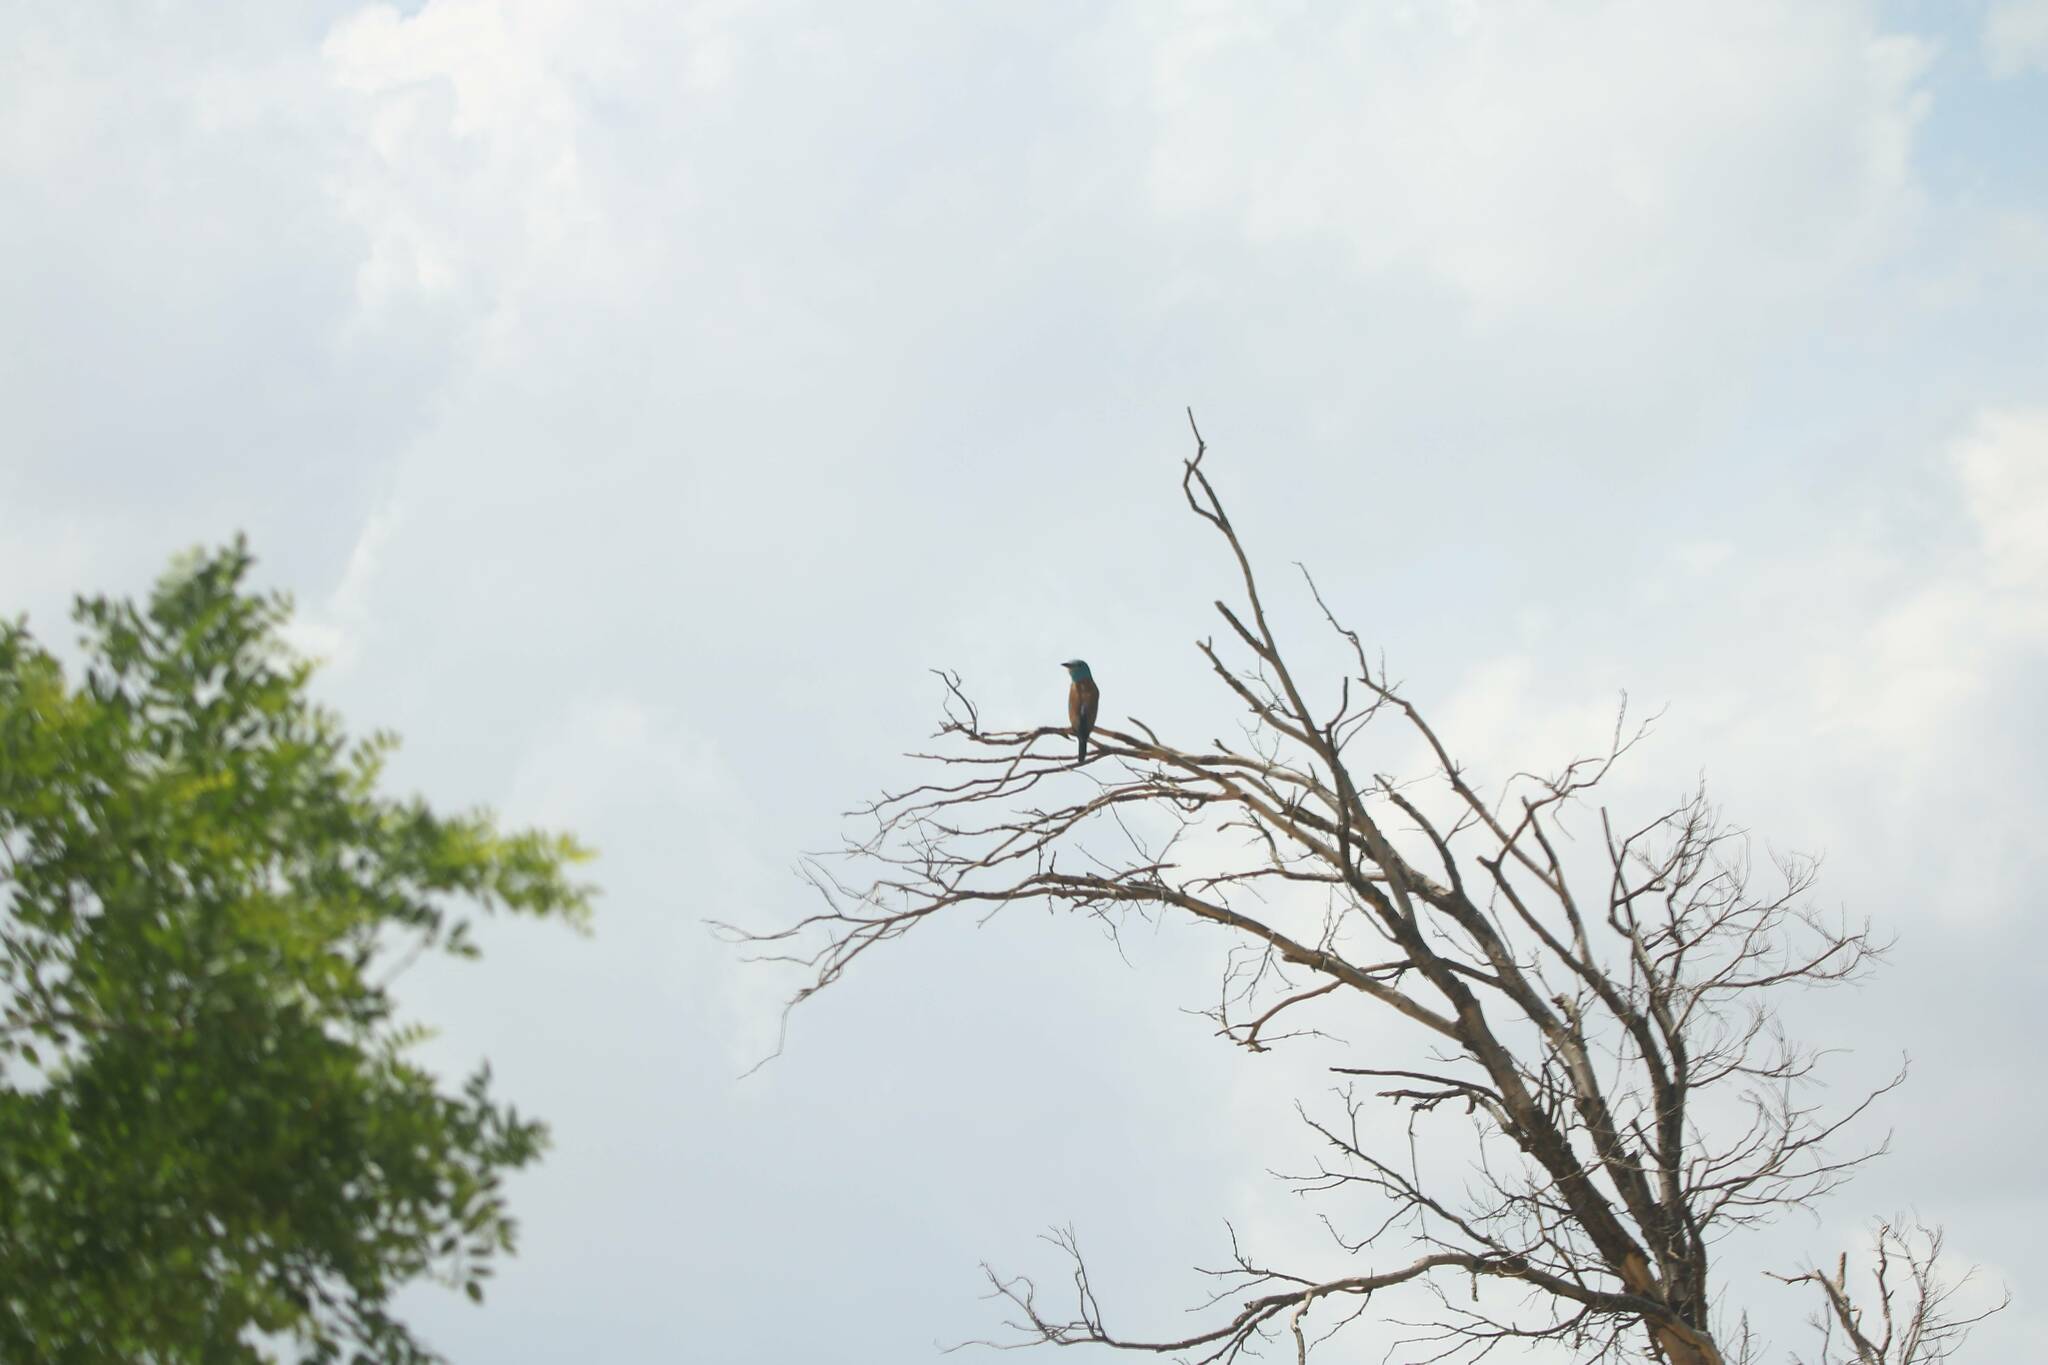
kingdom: Animalia
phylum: Chordata
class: Aves
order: Coraciiformes
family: Coraciidae
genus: Coracias
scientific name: Coracias garrulus
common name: European roller
